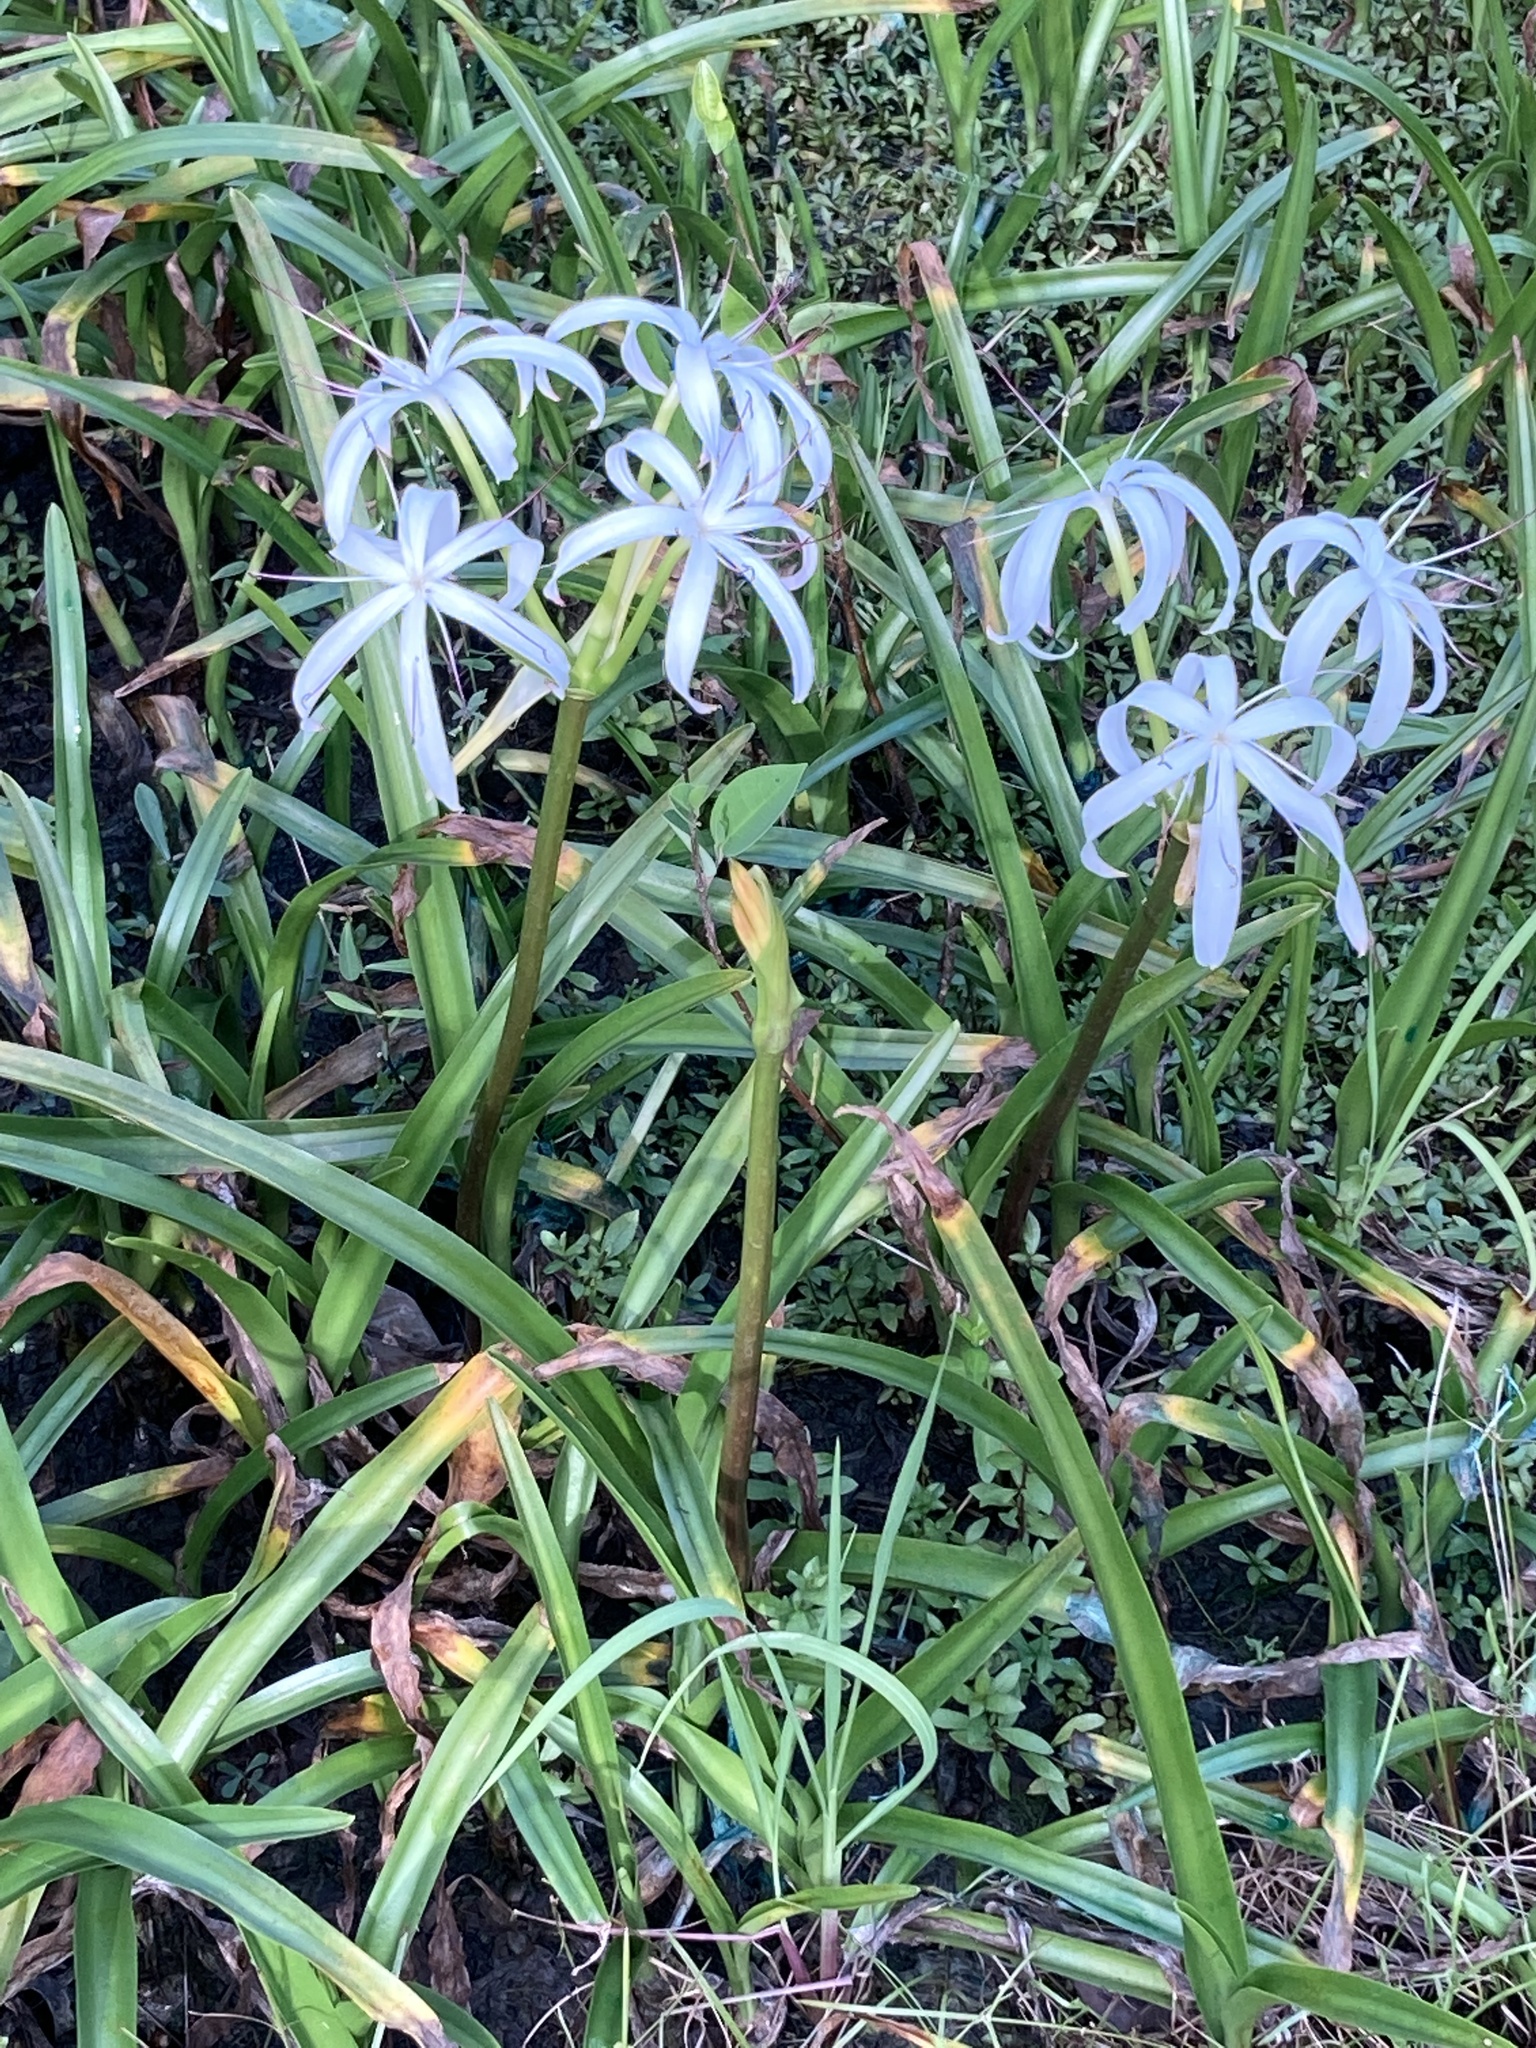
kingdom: Plantae
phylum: Tracheophyta
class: Liliopsida
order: Asparagales
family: Amaryllidaceae
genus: Crinum
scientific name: Crinum americanum
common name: Florida swamp-lily
